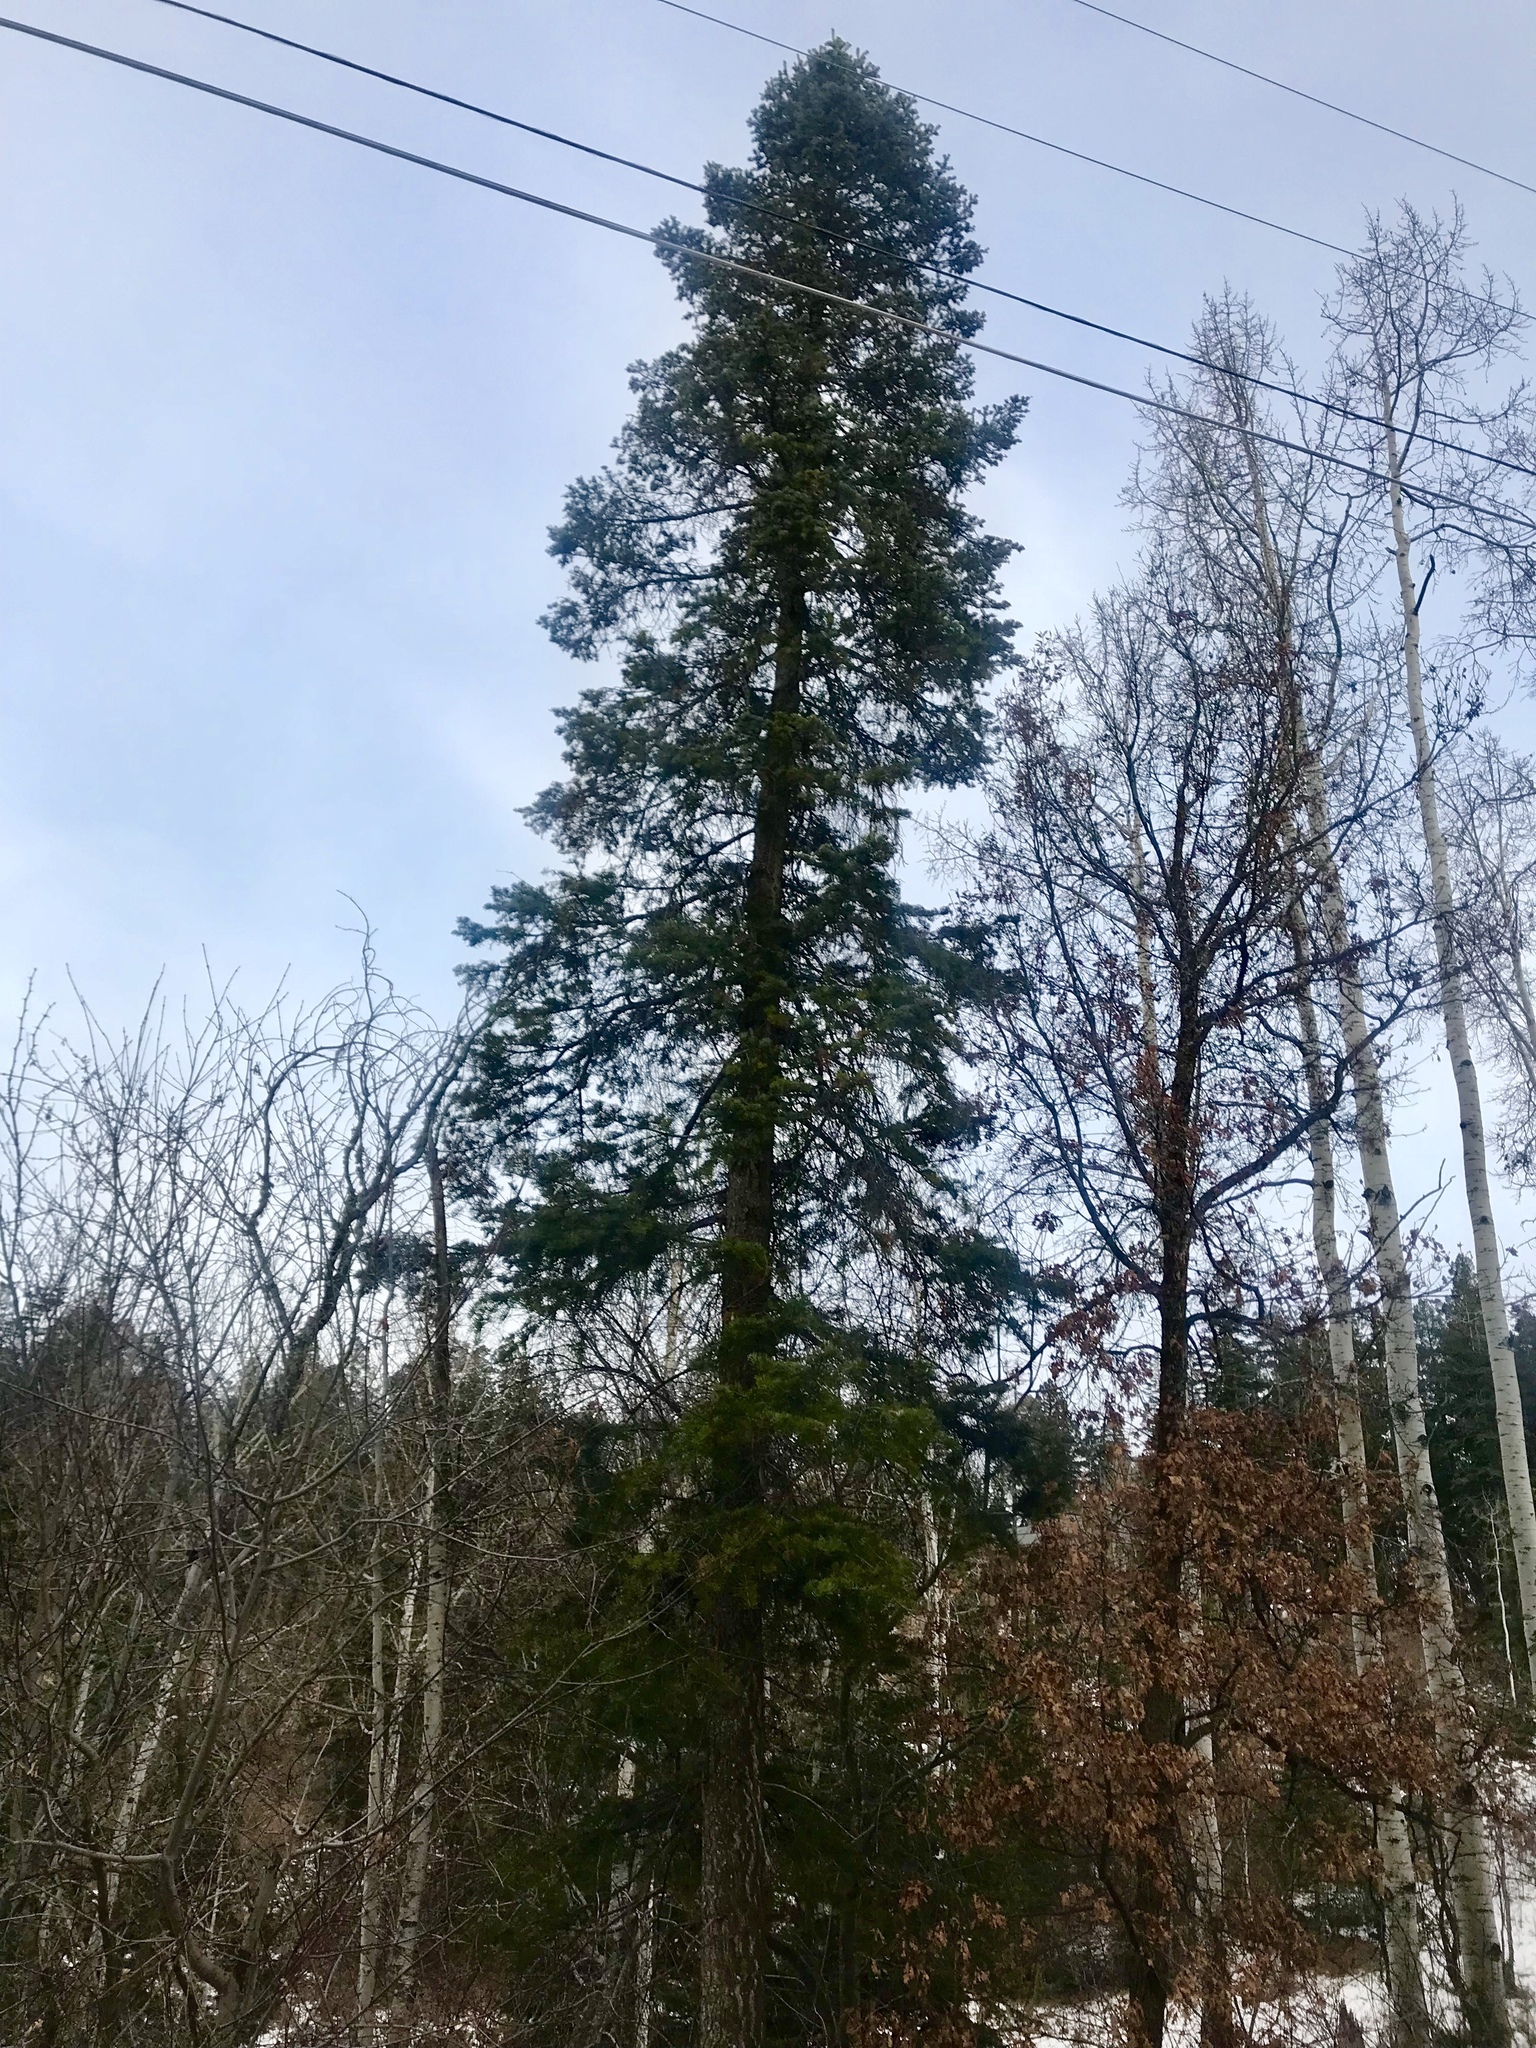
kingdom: Plantae
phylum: Tracheophyta
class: Pinopsida
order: Pinales
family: Pinaceae
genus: Pseudotsuga
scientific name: Pseudotsuga menziesii
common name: Douglas fir
